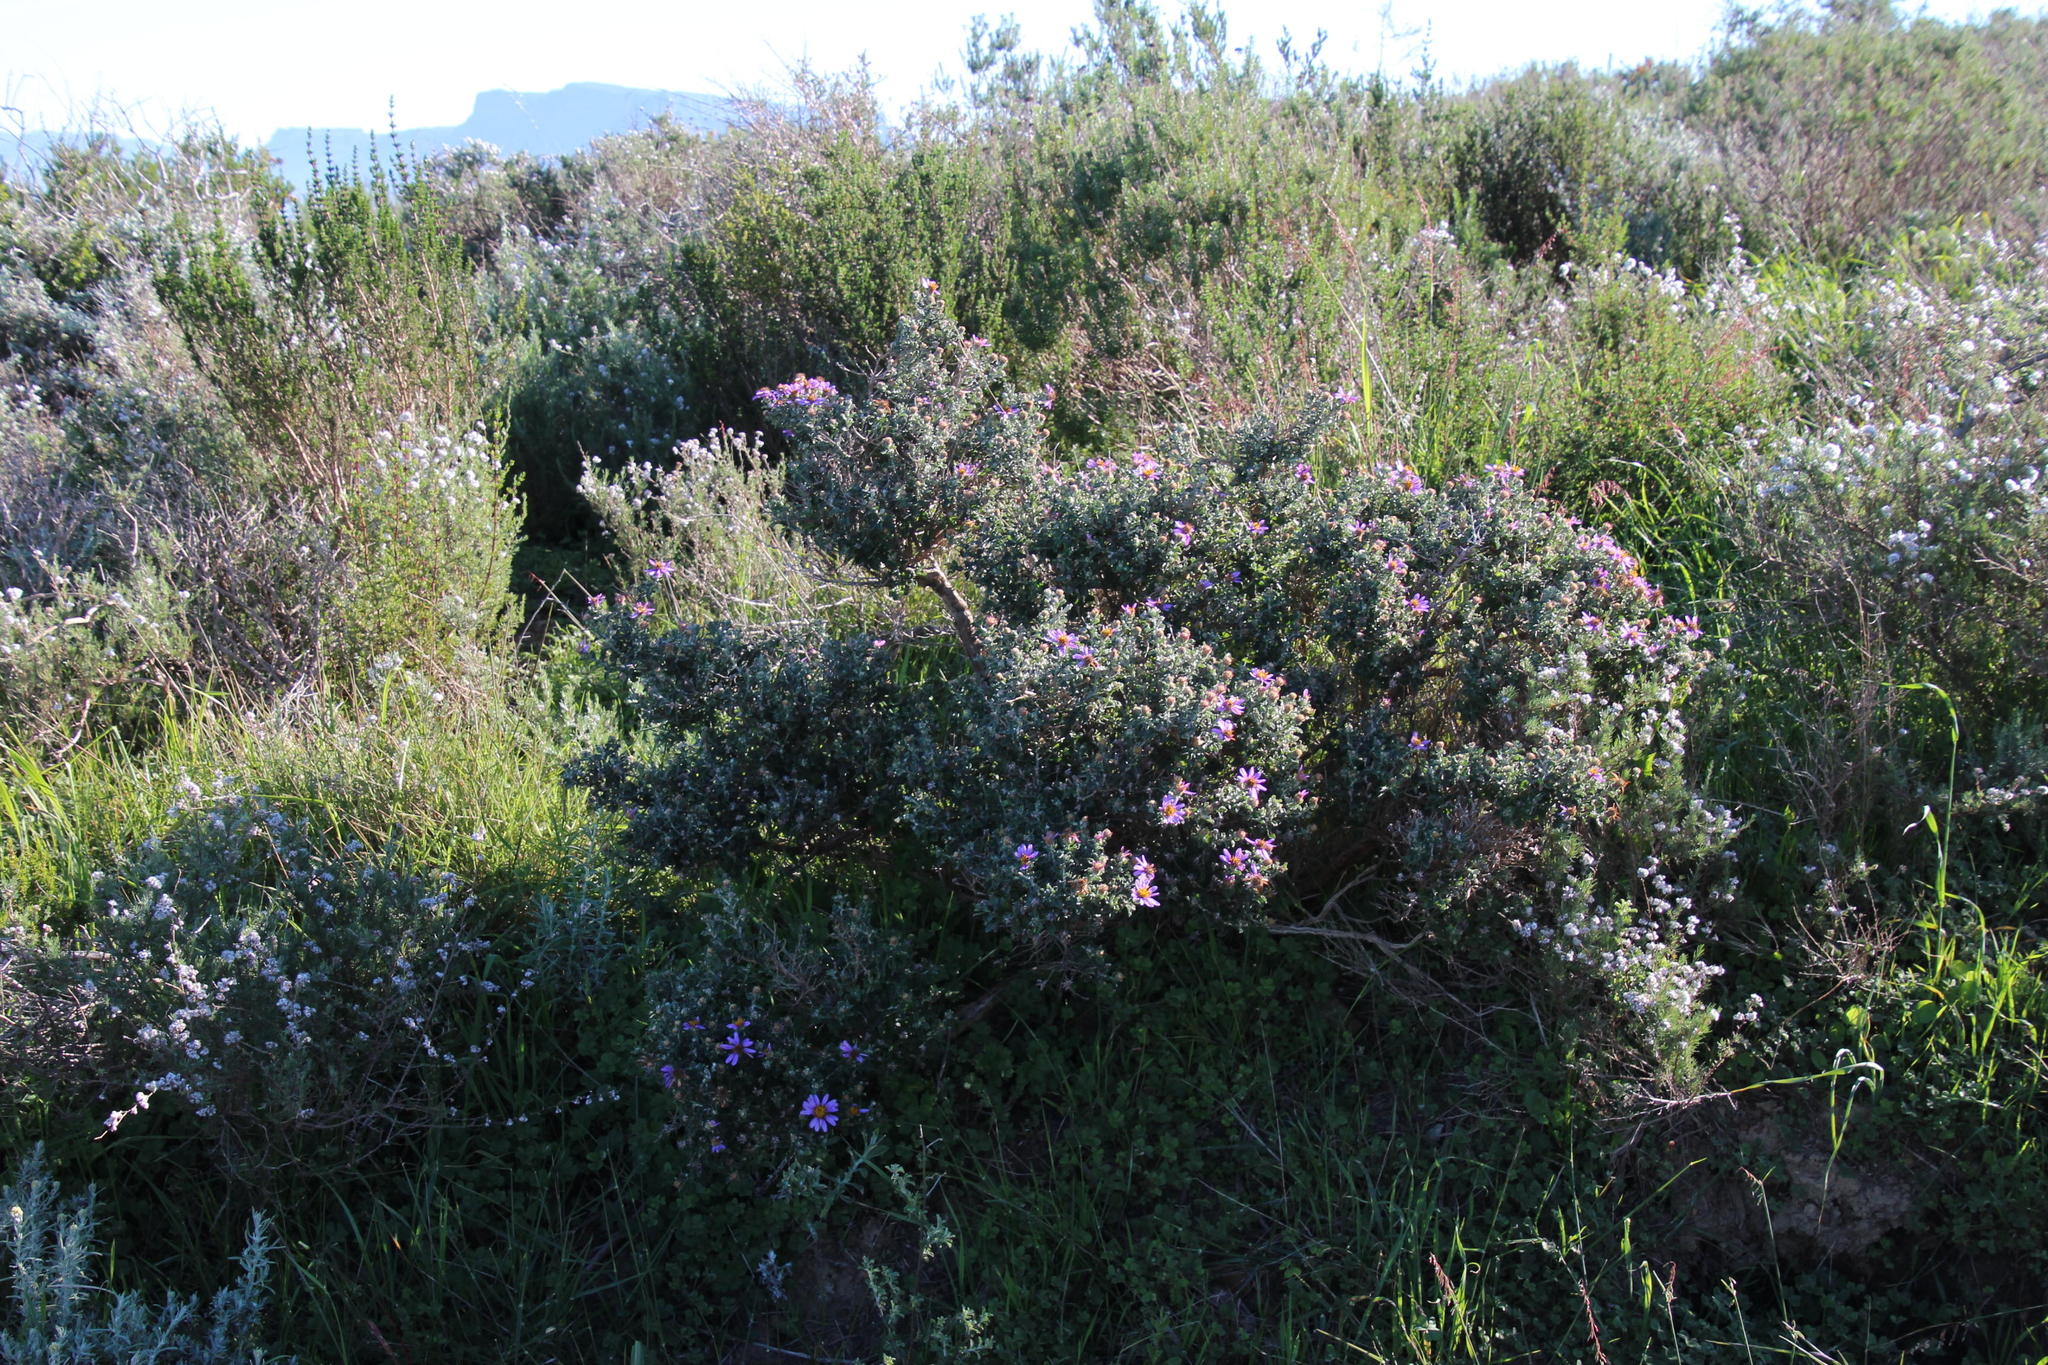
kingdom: Plantae
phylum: Tracheophyta
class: Magnoliopsida
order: Asterales
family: Asteraceae
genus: Printzia
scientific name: Printzia aromatica
